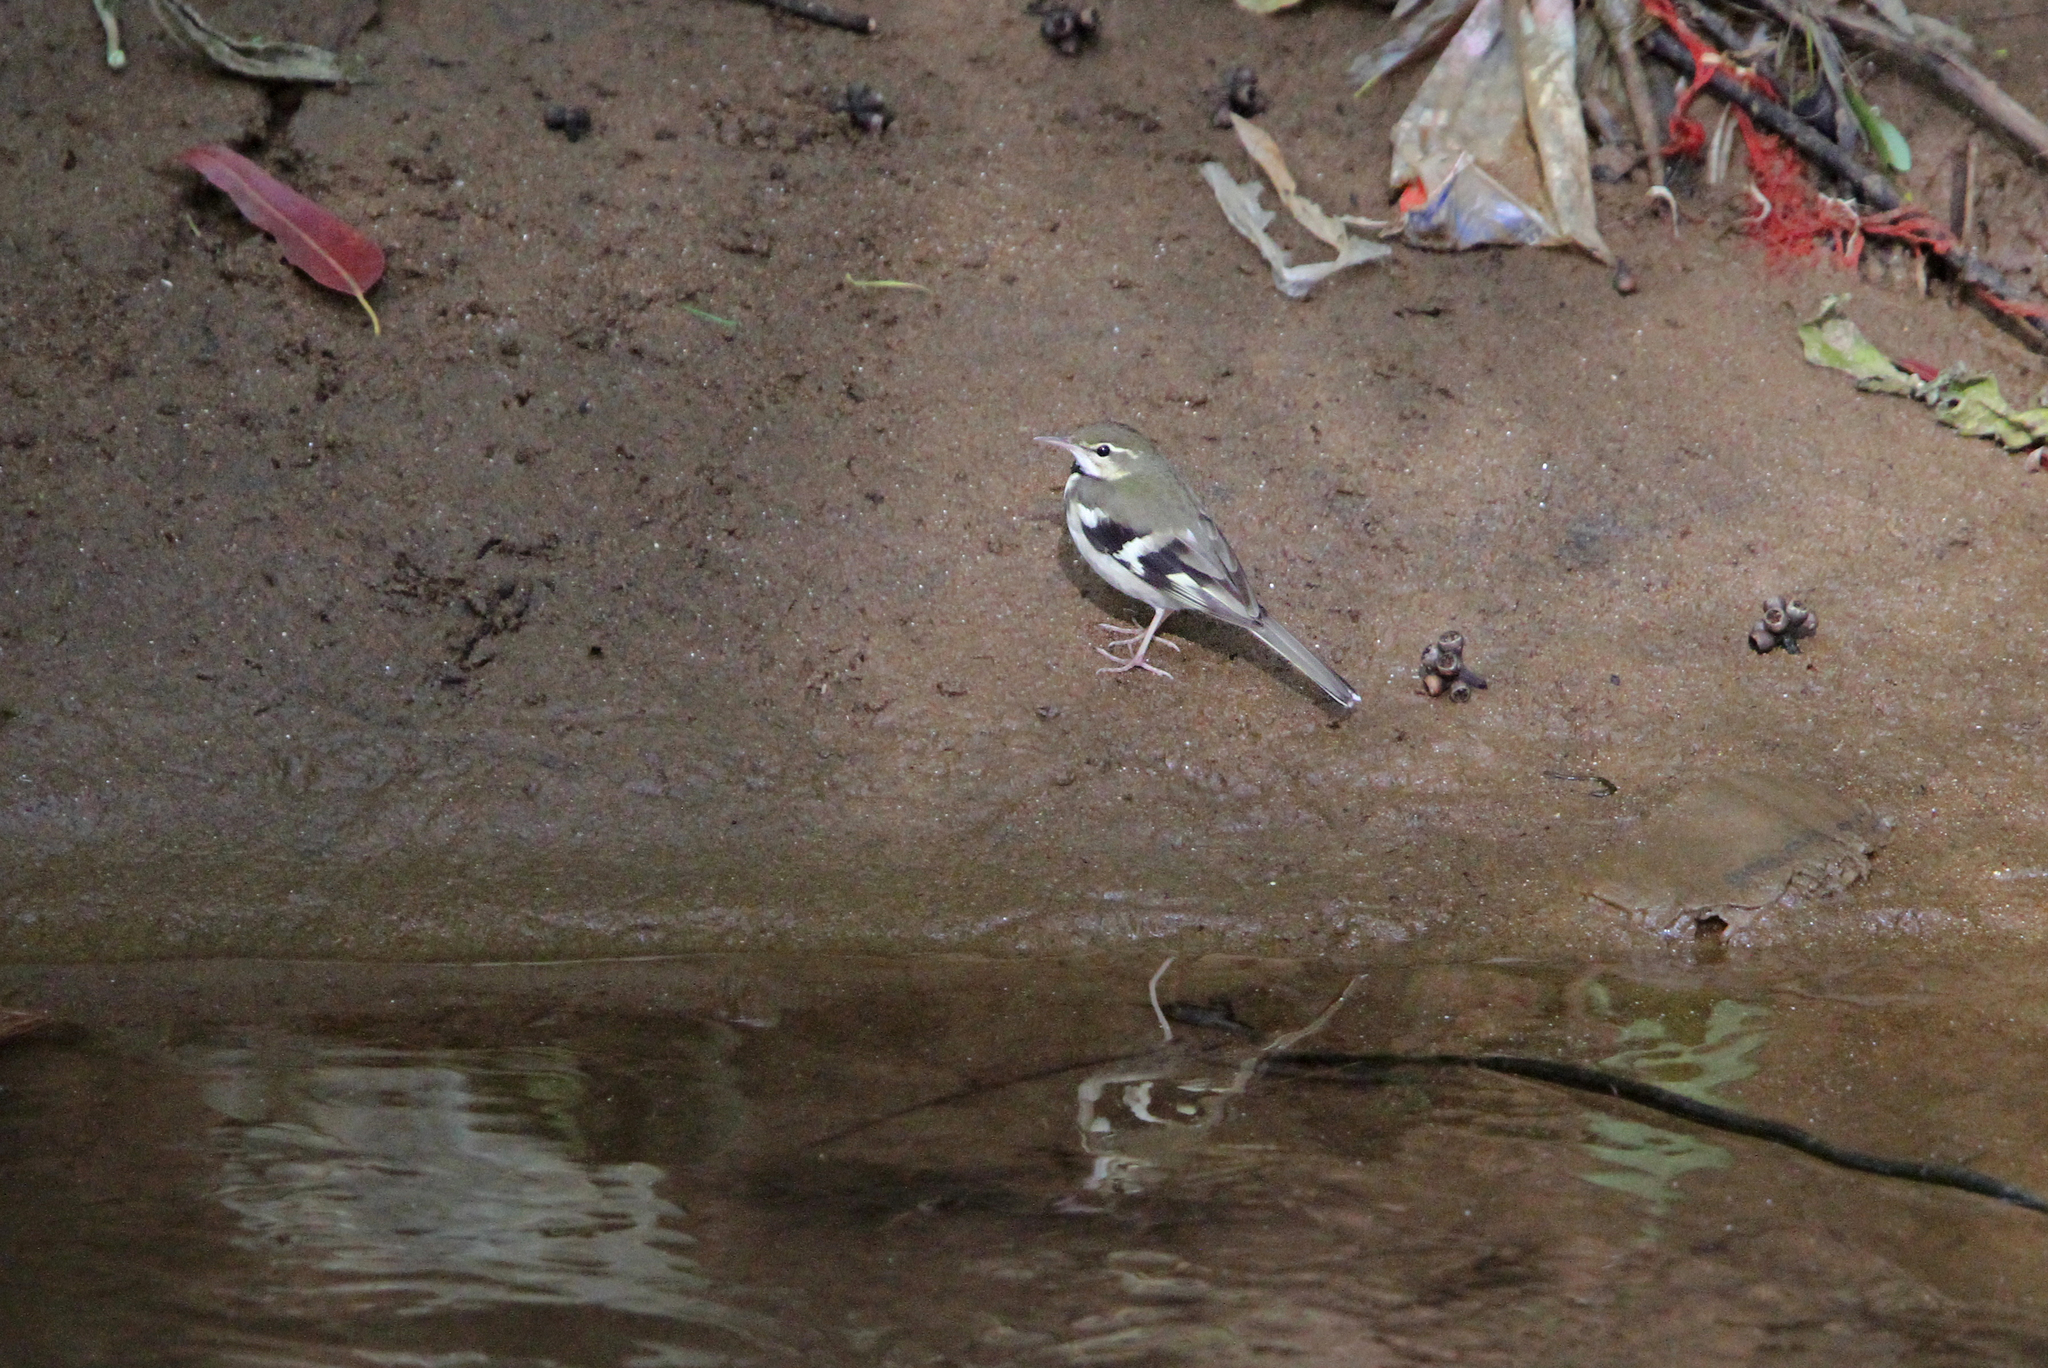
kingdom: Animalia
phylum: Chordata
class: Aves
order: Passeriformes
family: Motacillidae
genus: Dendronanthus
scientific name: Dendronanthus indicus
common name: Forest wagtail
